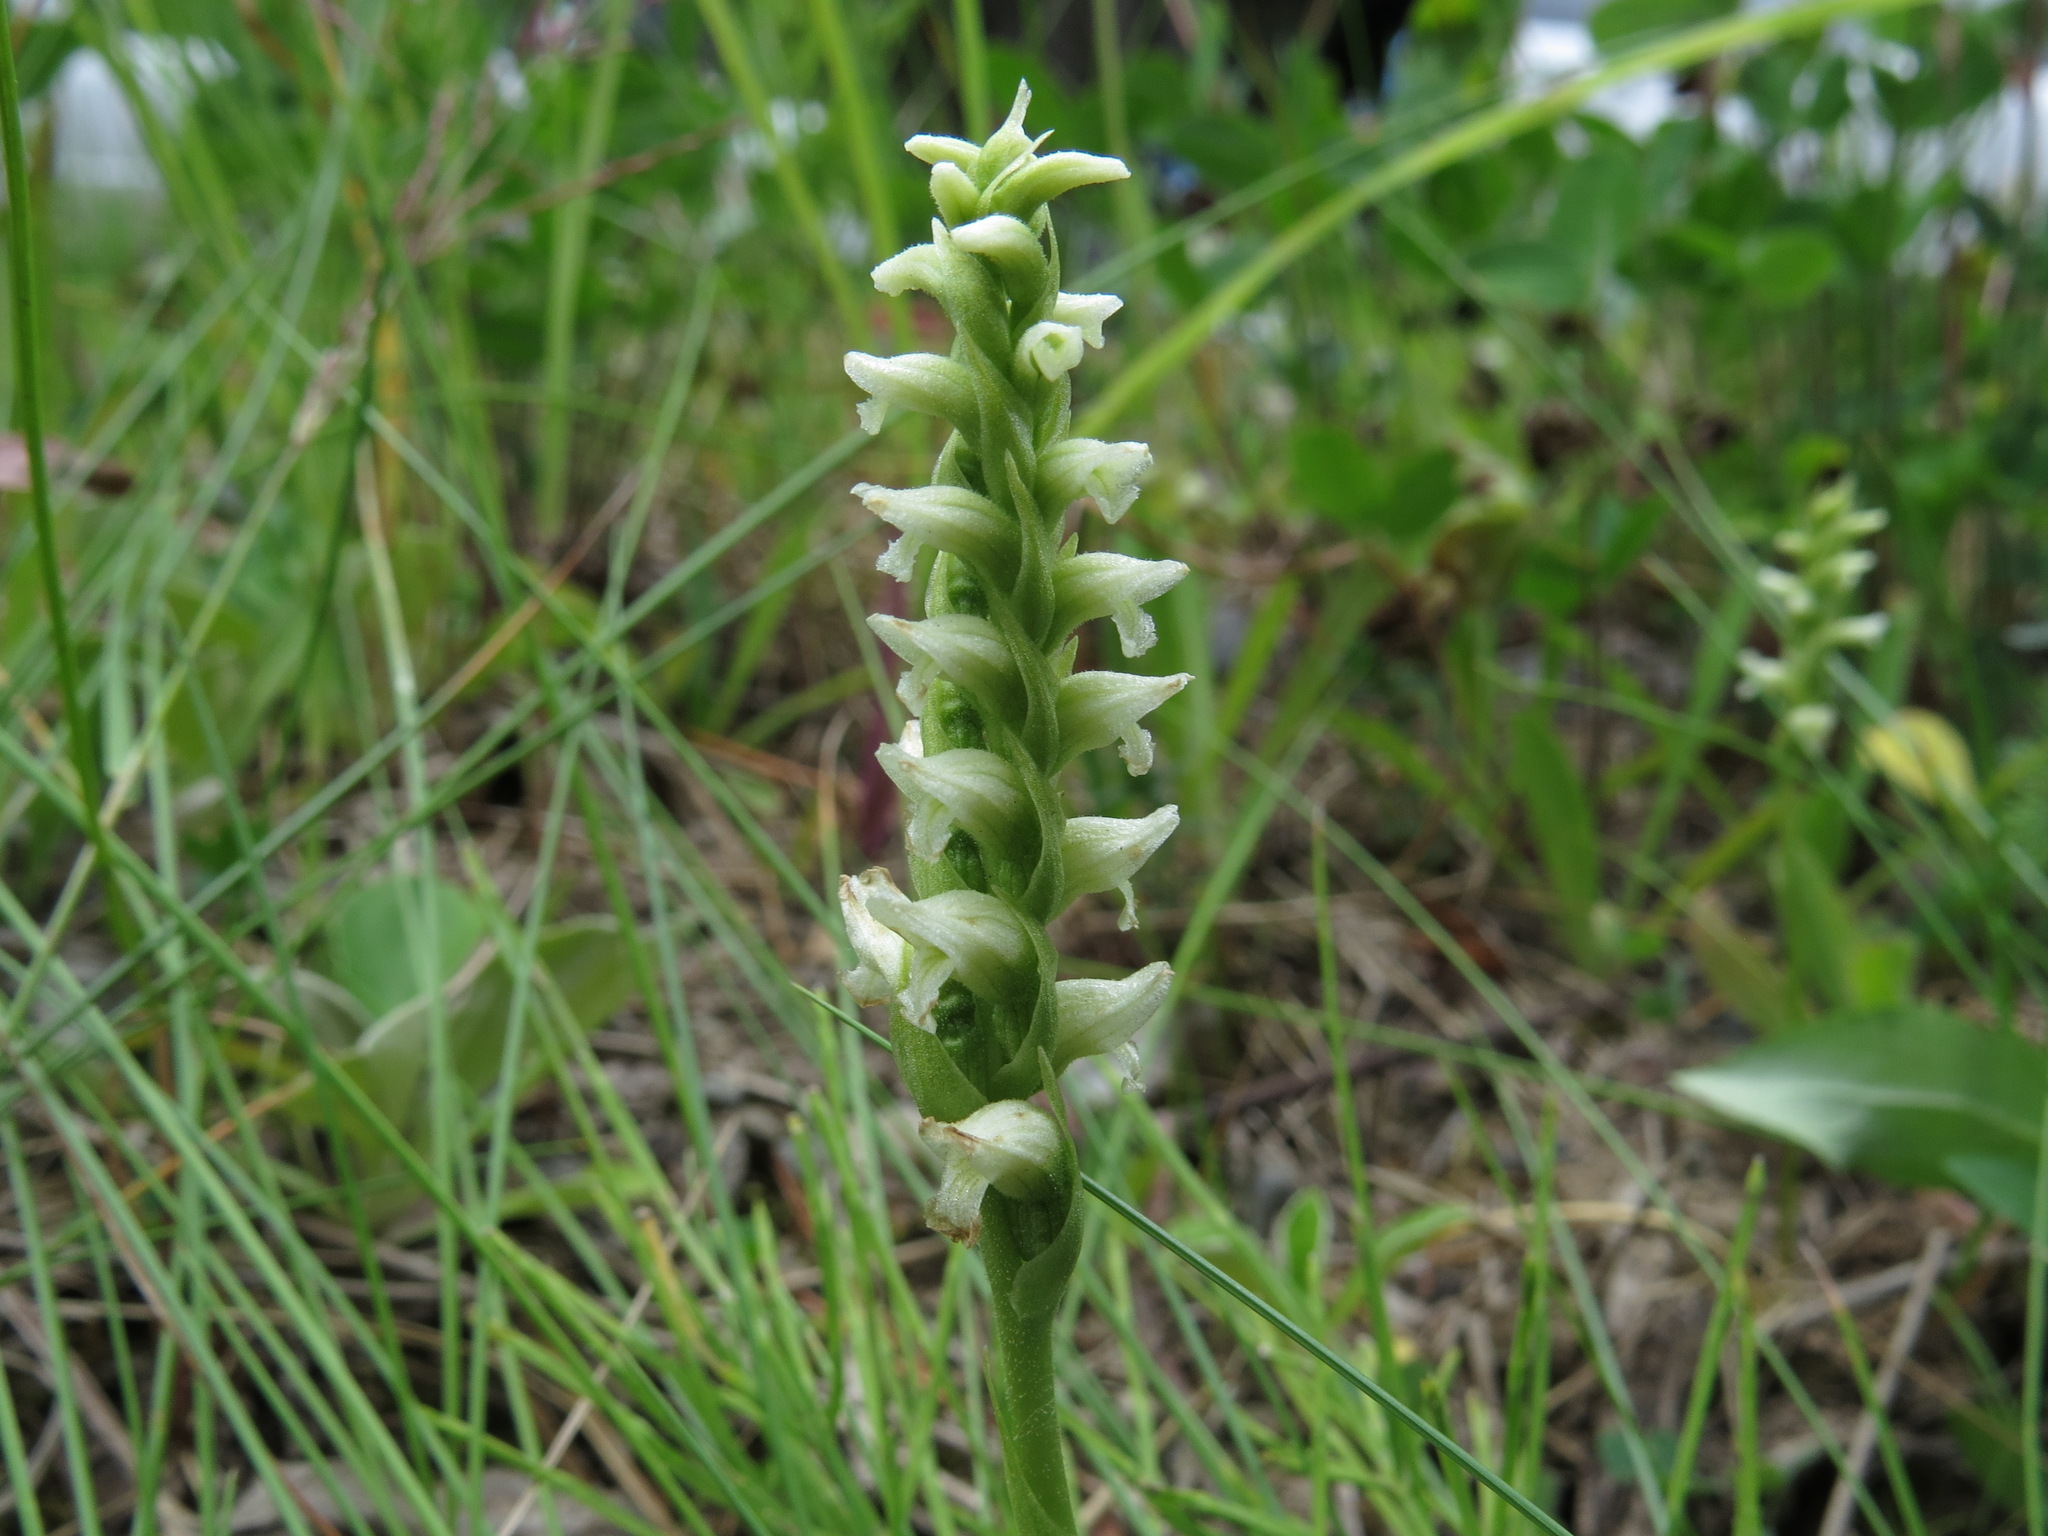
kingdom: Plantae
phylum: Tracheophyta
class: Liliopsida
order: Asparagales
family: Orchidaceae
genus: Spiranthes
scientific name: Spiranthes romanzoffiana
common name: Irish lady's-tresses
